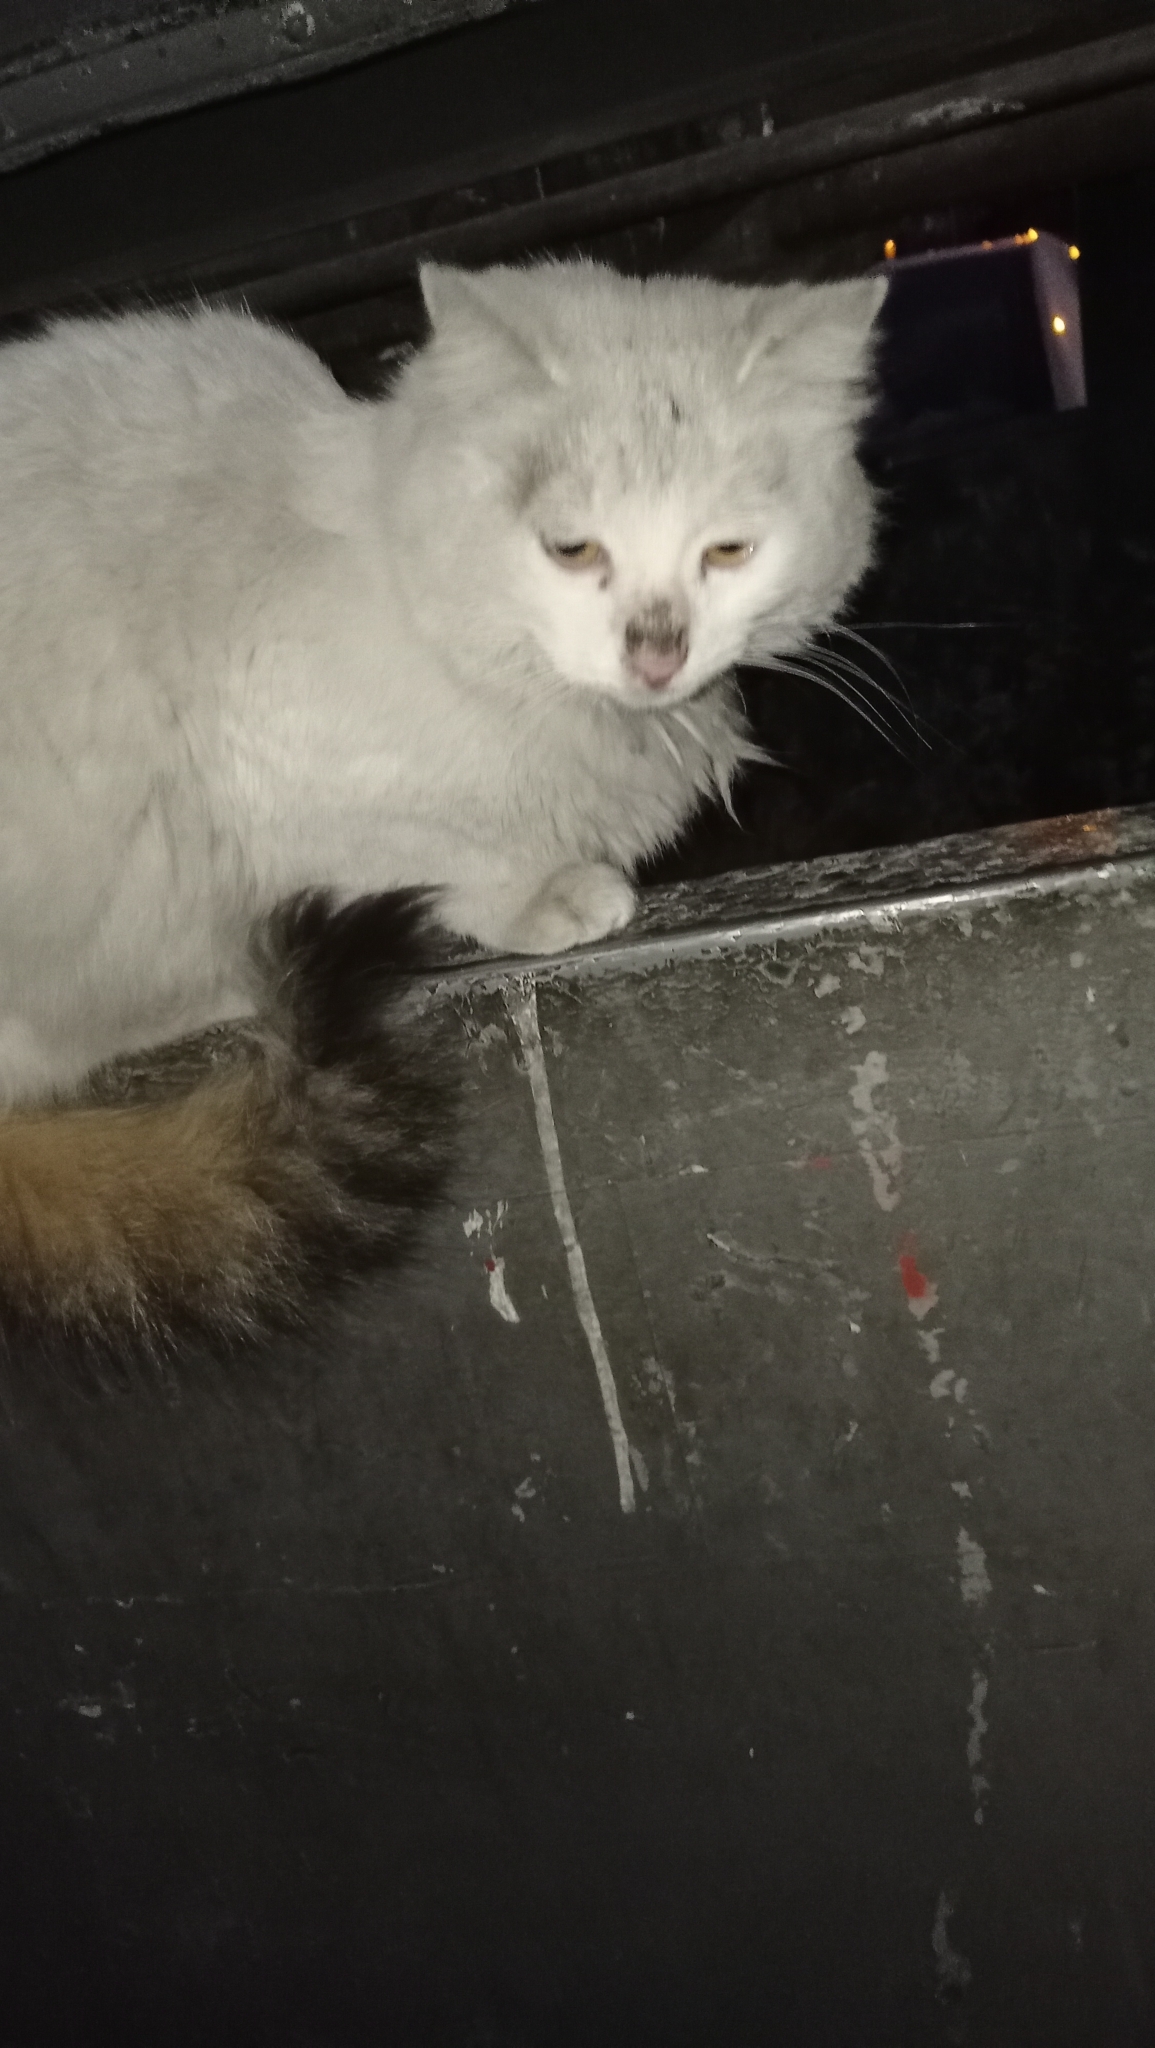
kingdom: Animalia
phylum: Chordata
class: Mammalia
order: Carnivora
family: Felidae
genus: Felis
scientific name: Felis catus
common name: Domestic cat
